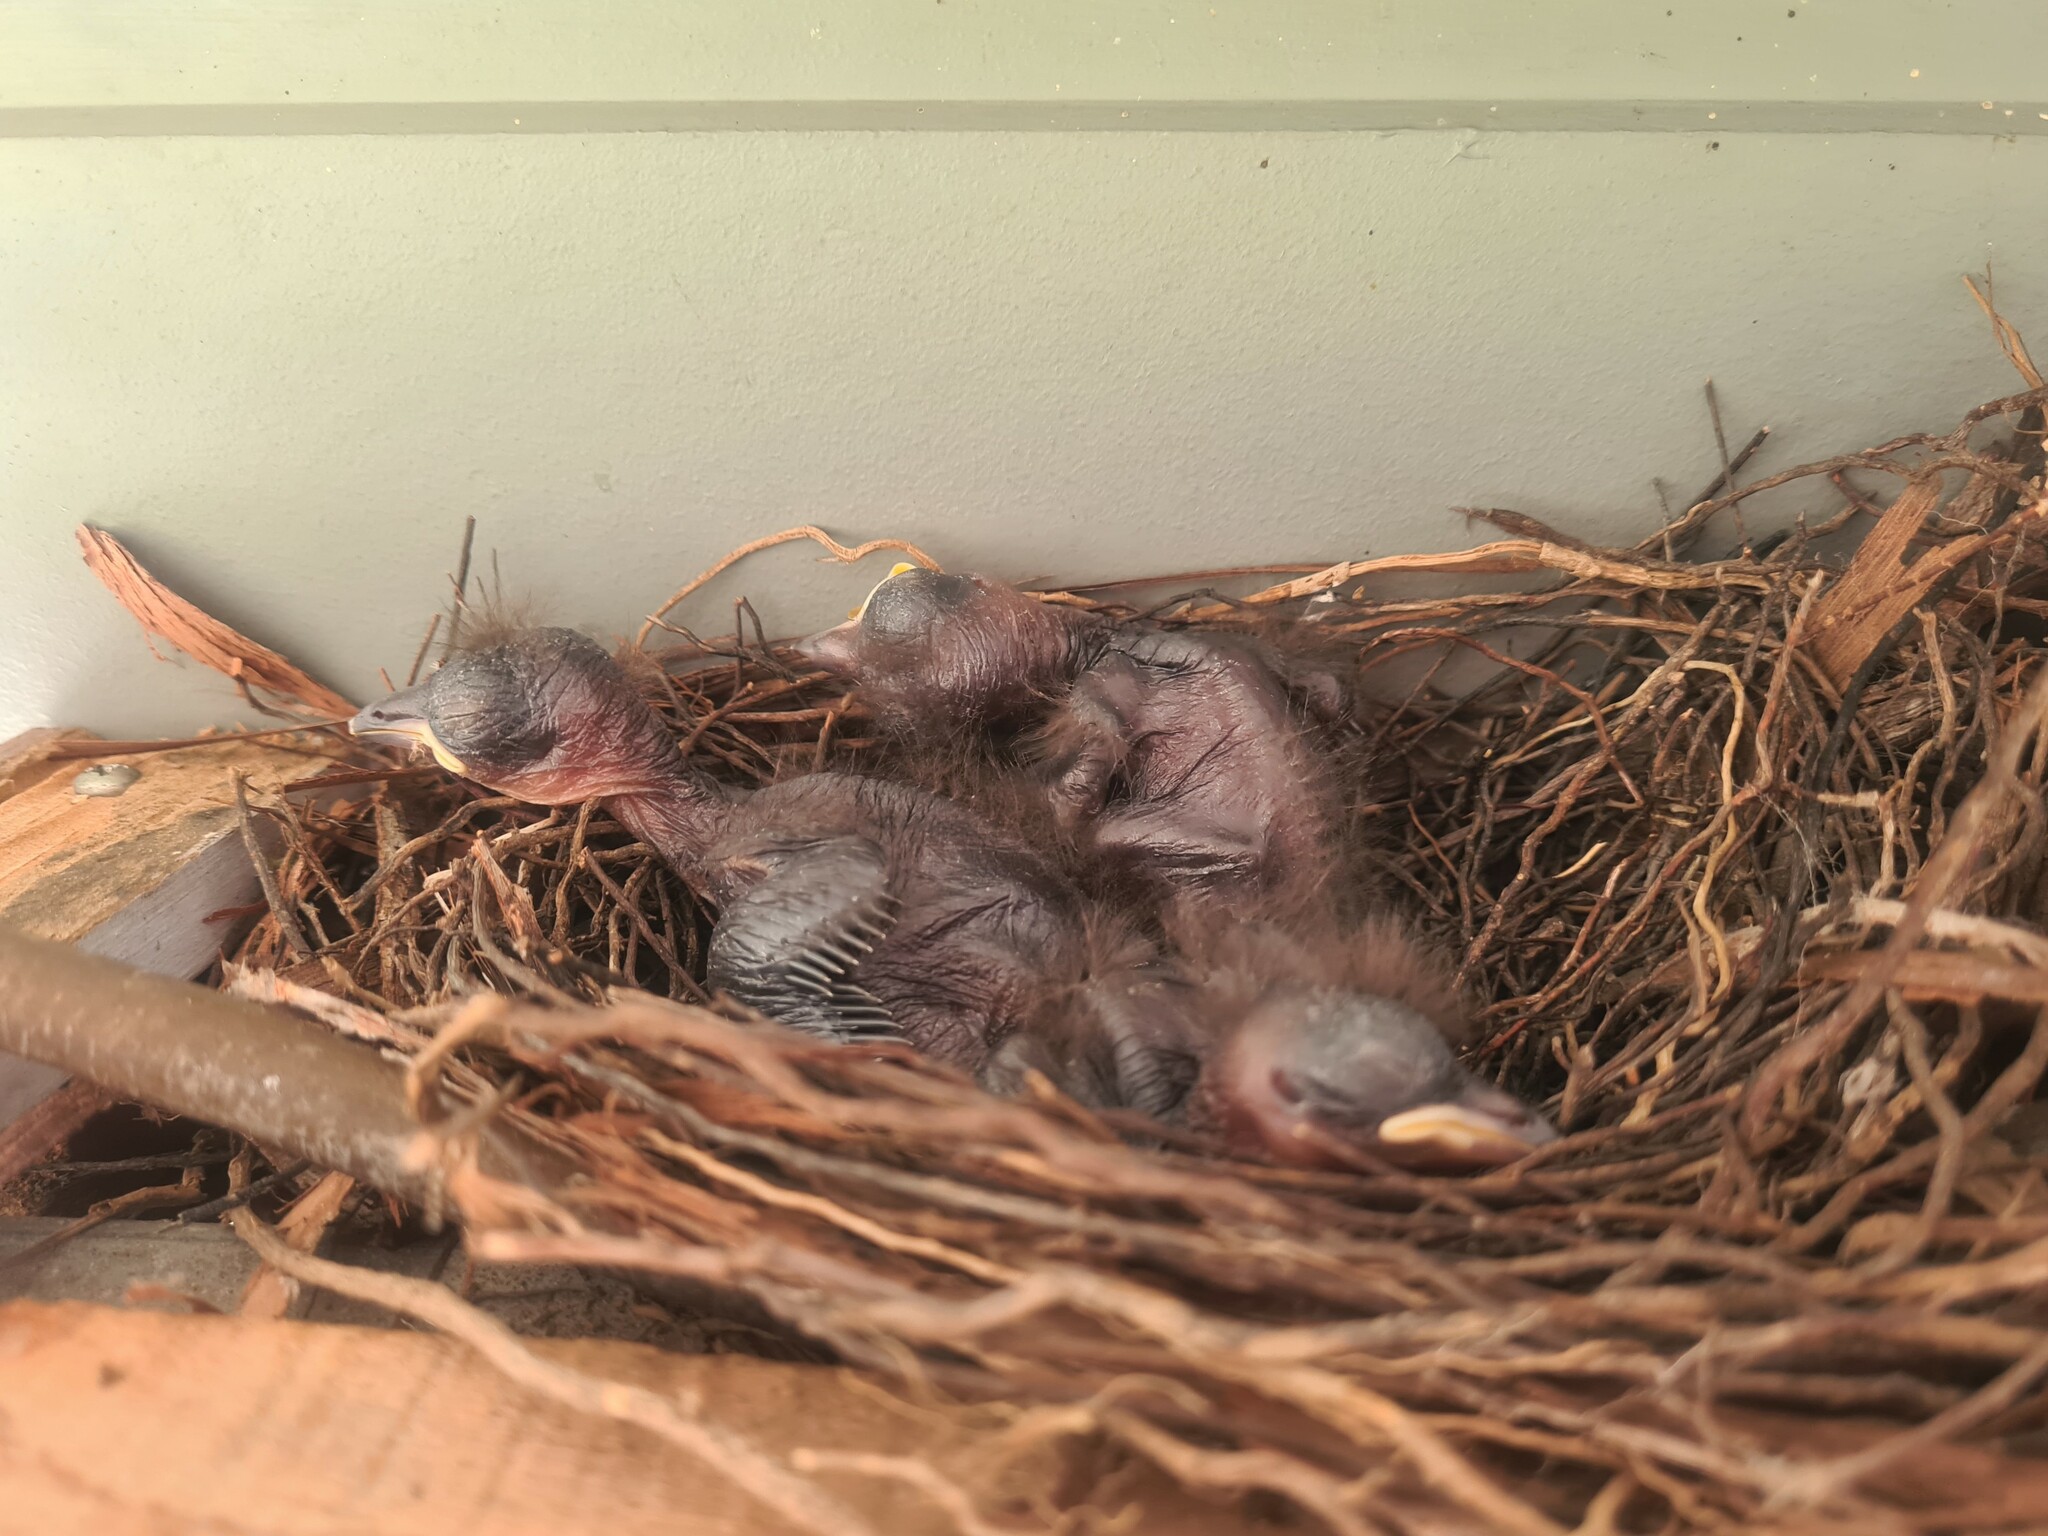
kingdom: Animalia
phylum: Chordata
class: Aves
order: Passeriformes
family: Pachycephalidae
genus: Colluricincla
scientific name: Colluricincla harmonica
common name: Grey shrikethrush
